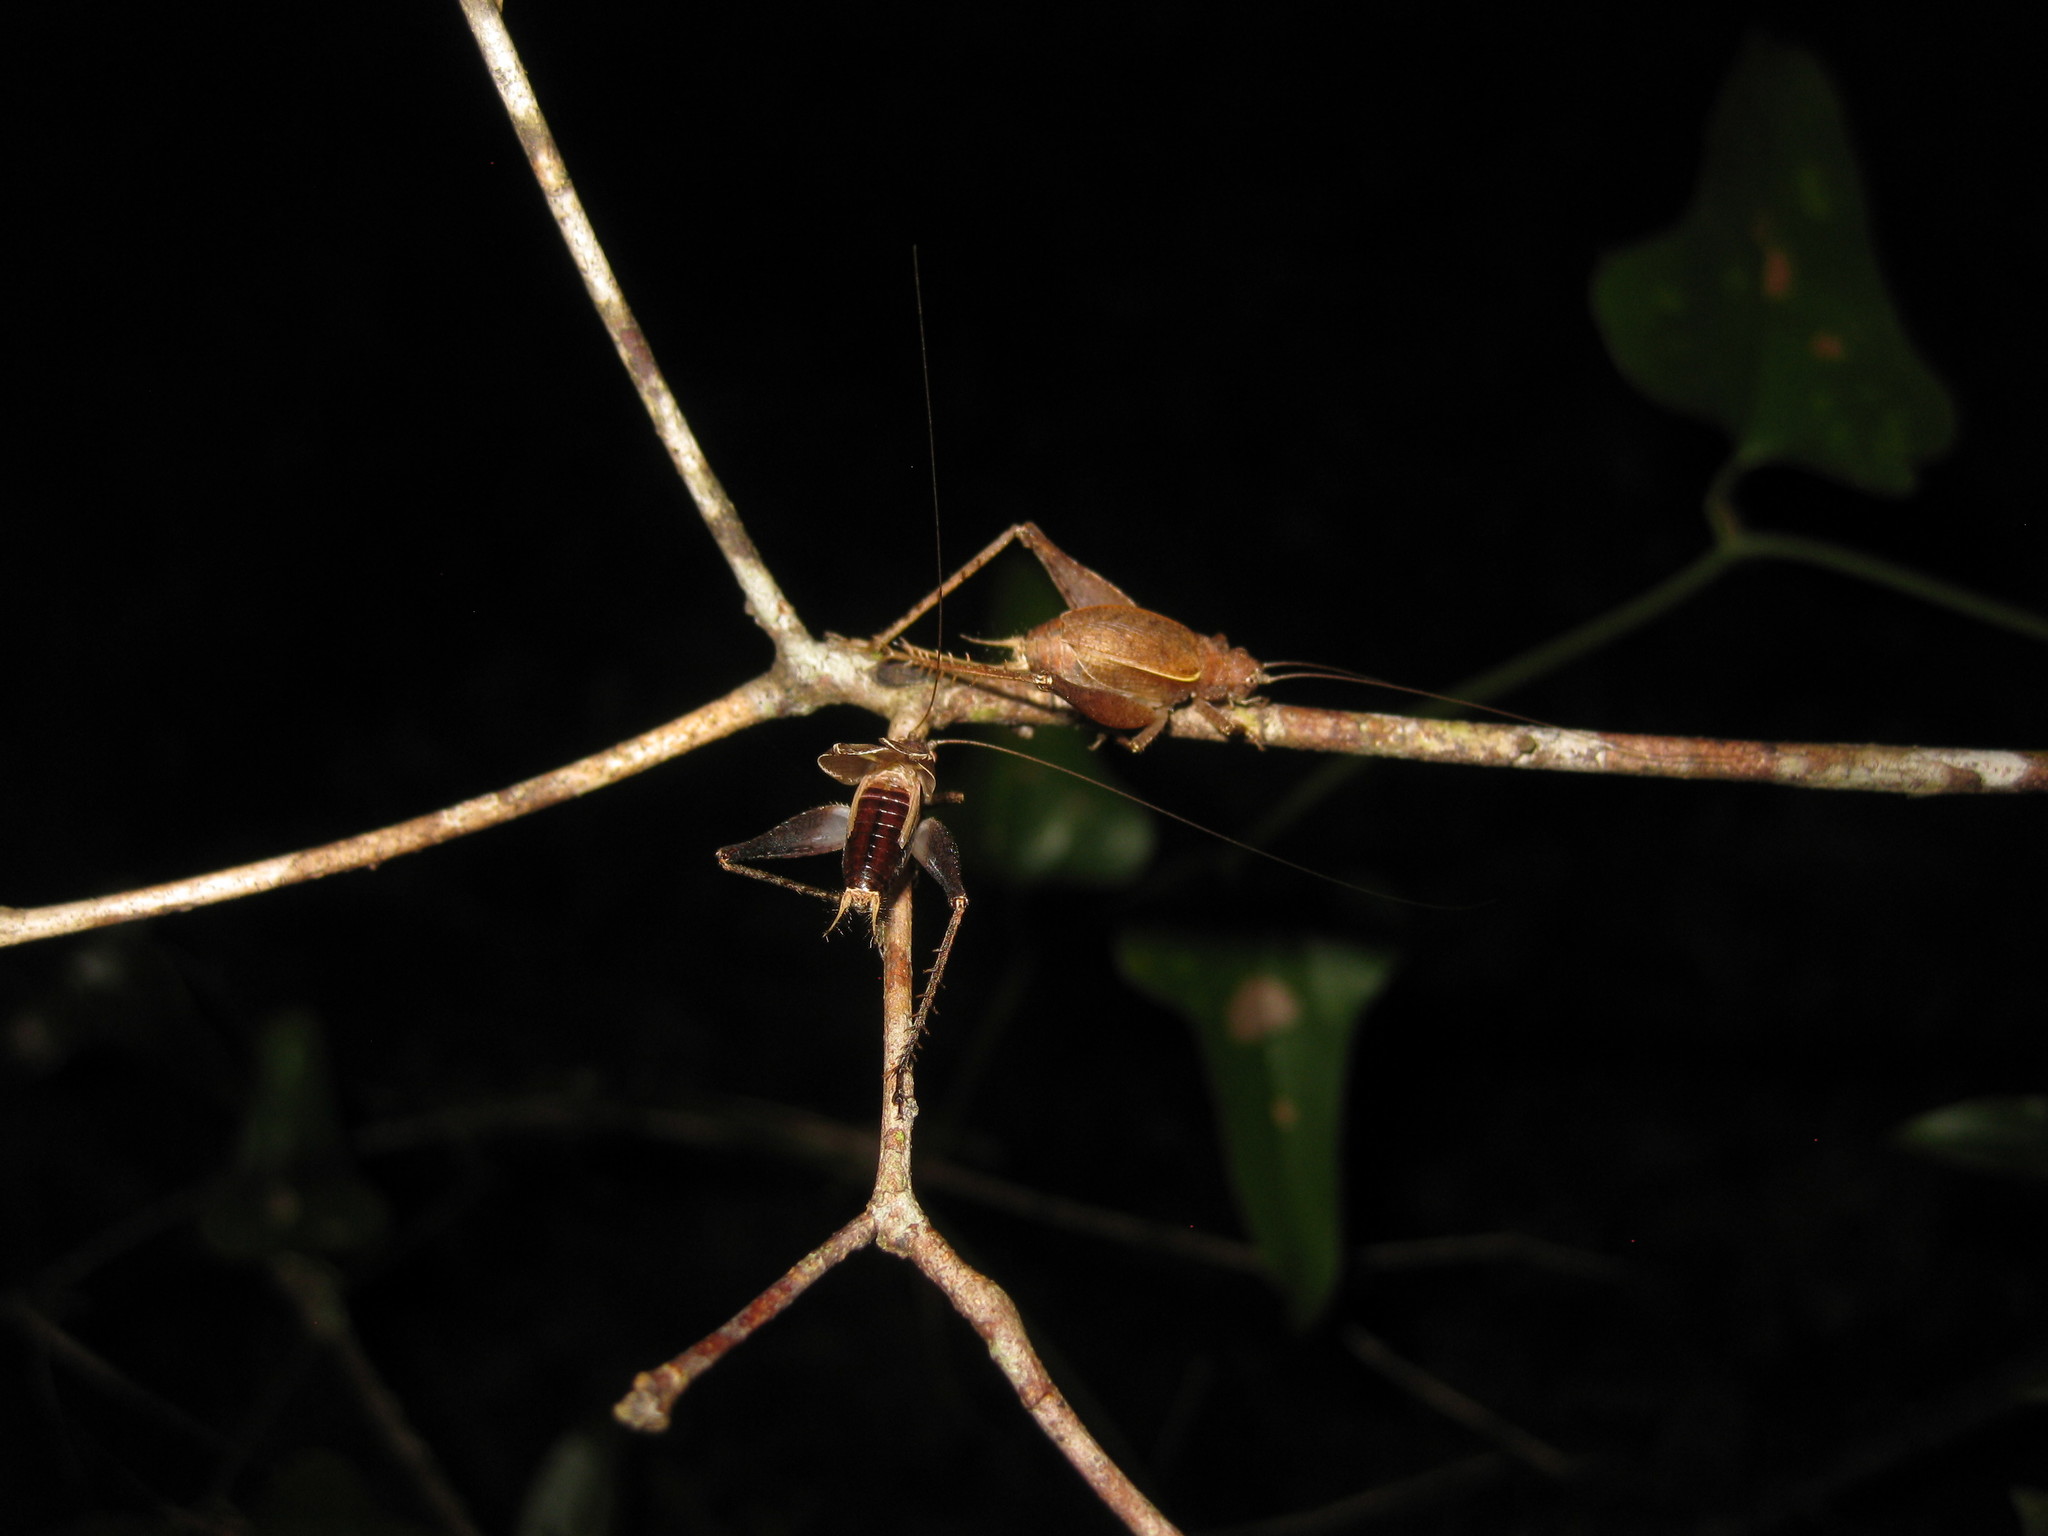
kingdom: Animalia
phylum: Arthropoda
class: Insecta
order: Orthoptera
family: Gryllidae
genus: Hapithus
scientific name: Hapithus agitator
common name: Restless bush cricket
